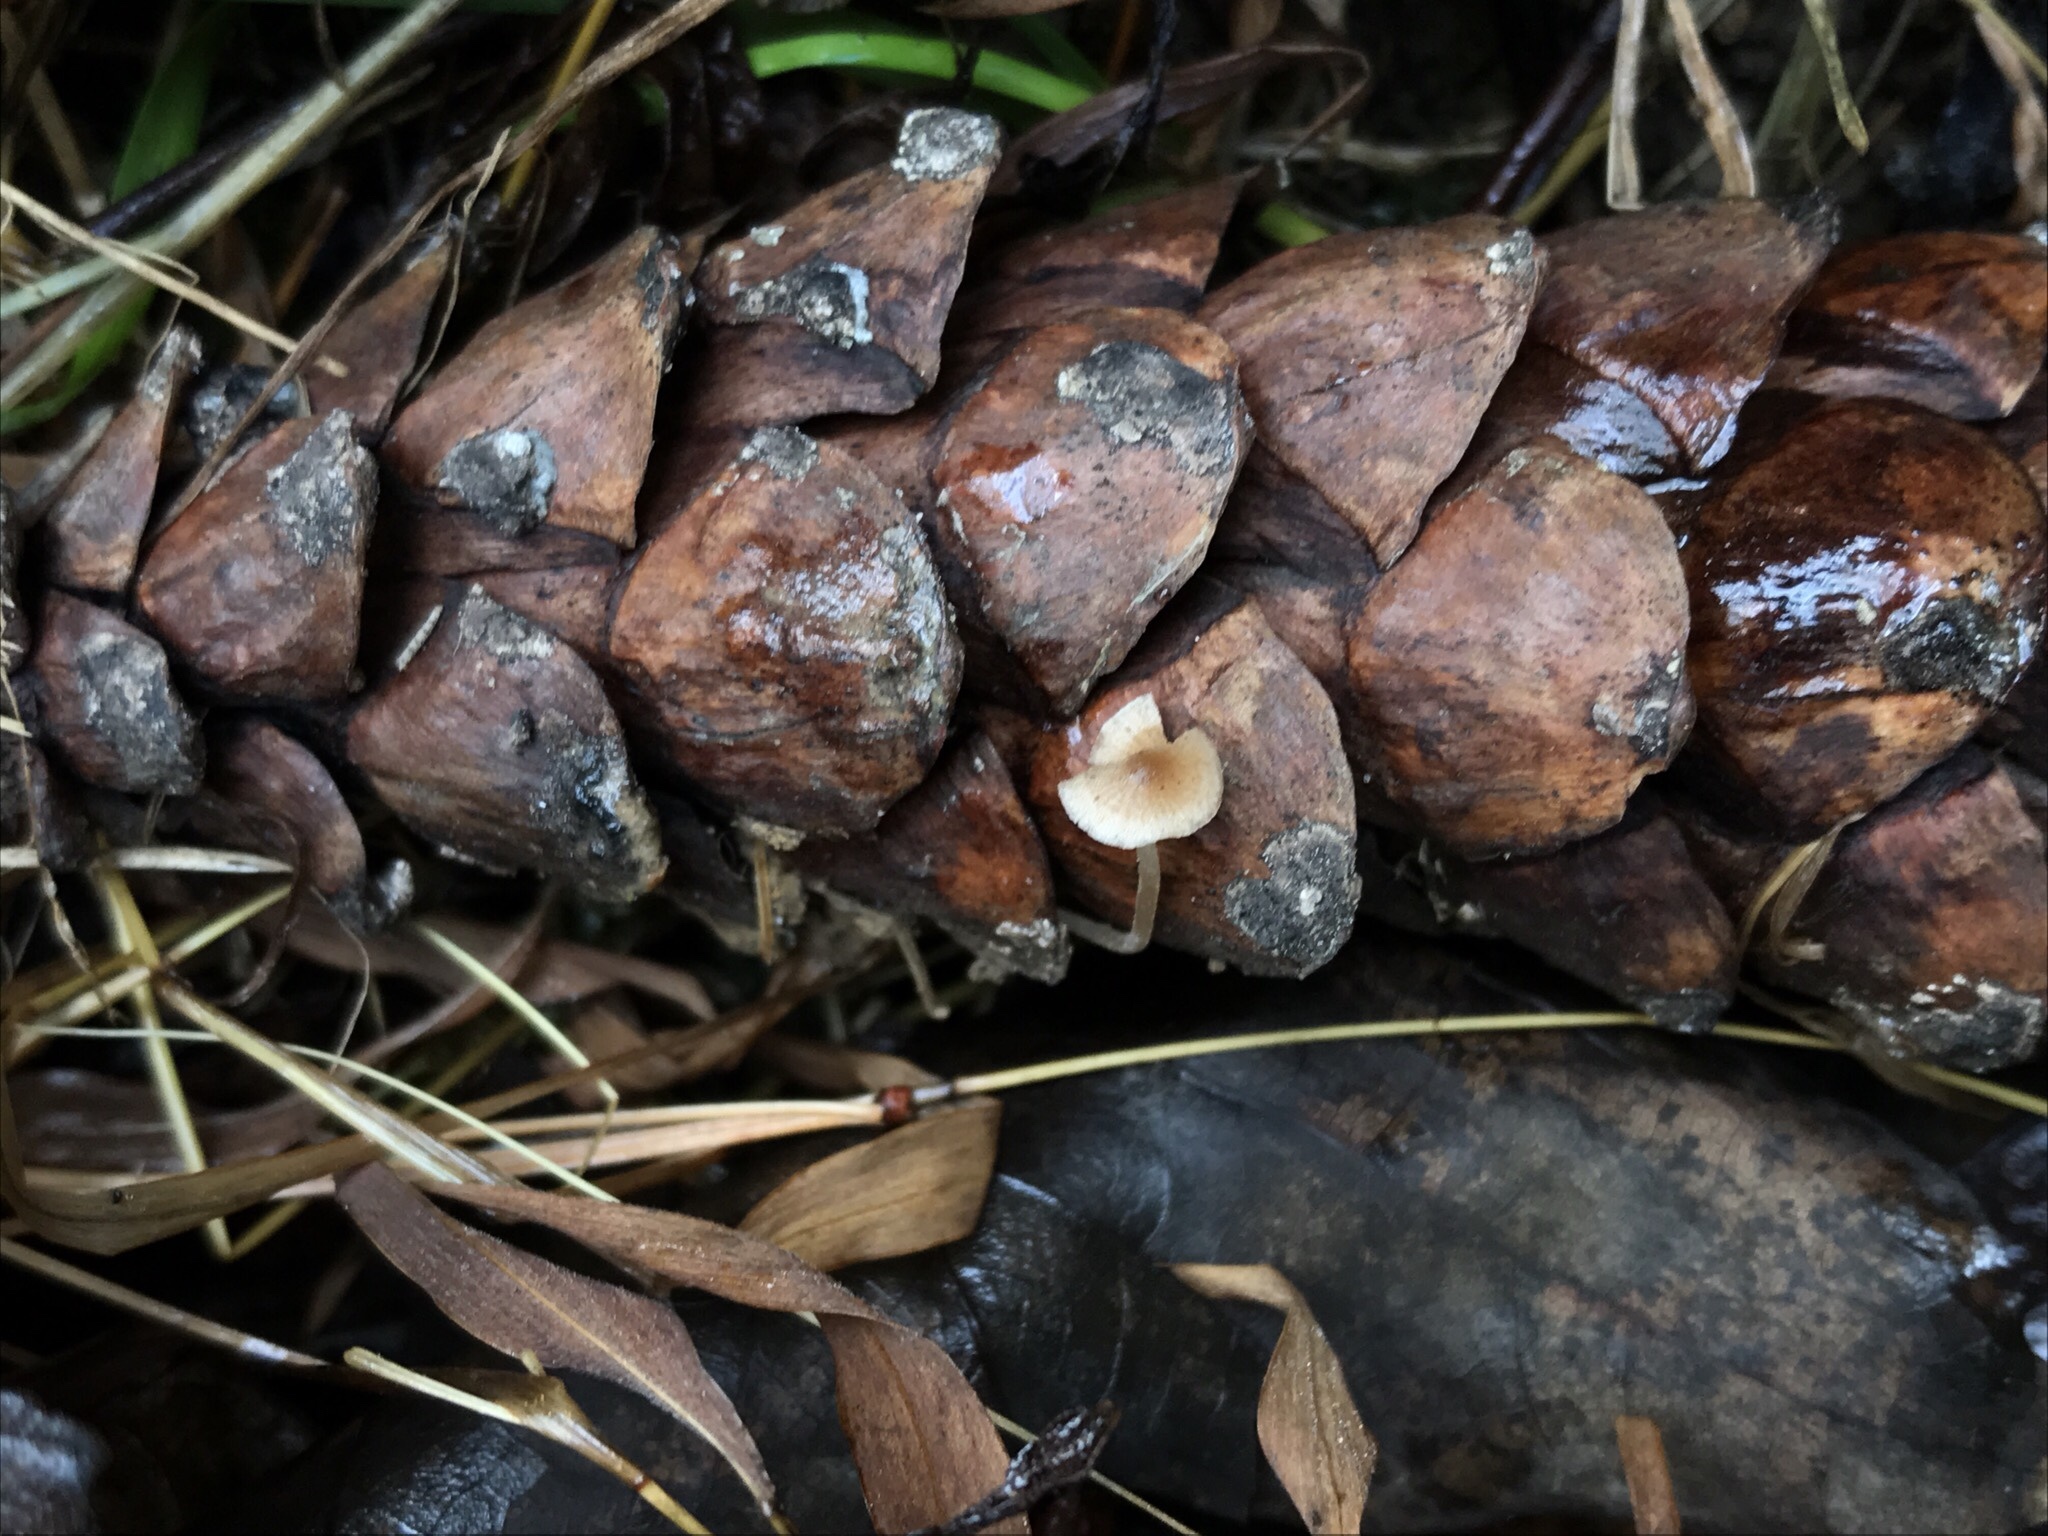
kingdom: Fungi
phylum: Basidiomycota
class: Agaricomycetes
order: Agaricales
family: Marasmiaceae
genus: Baeospora
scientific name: Baeospora myosura
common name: Conifercone cap
